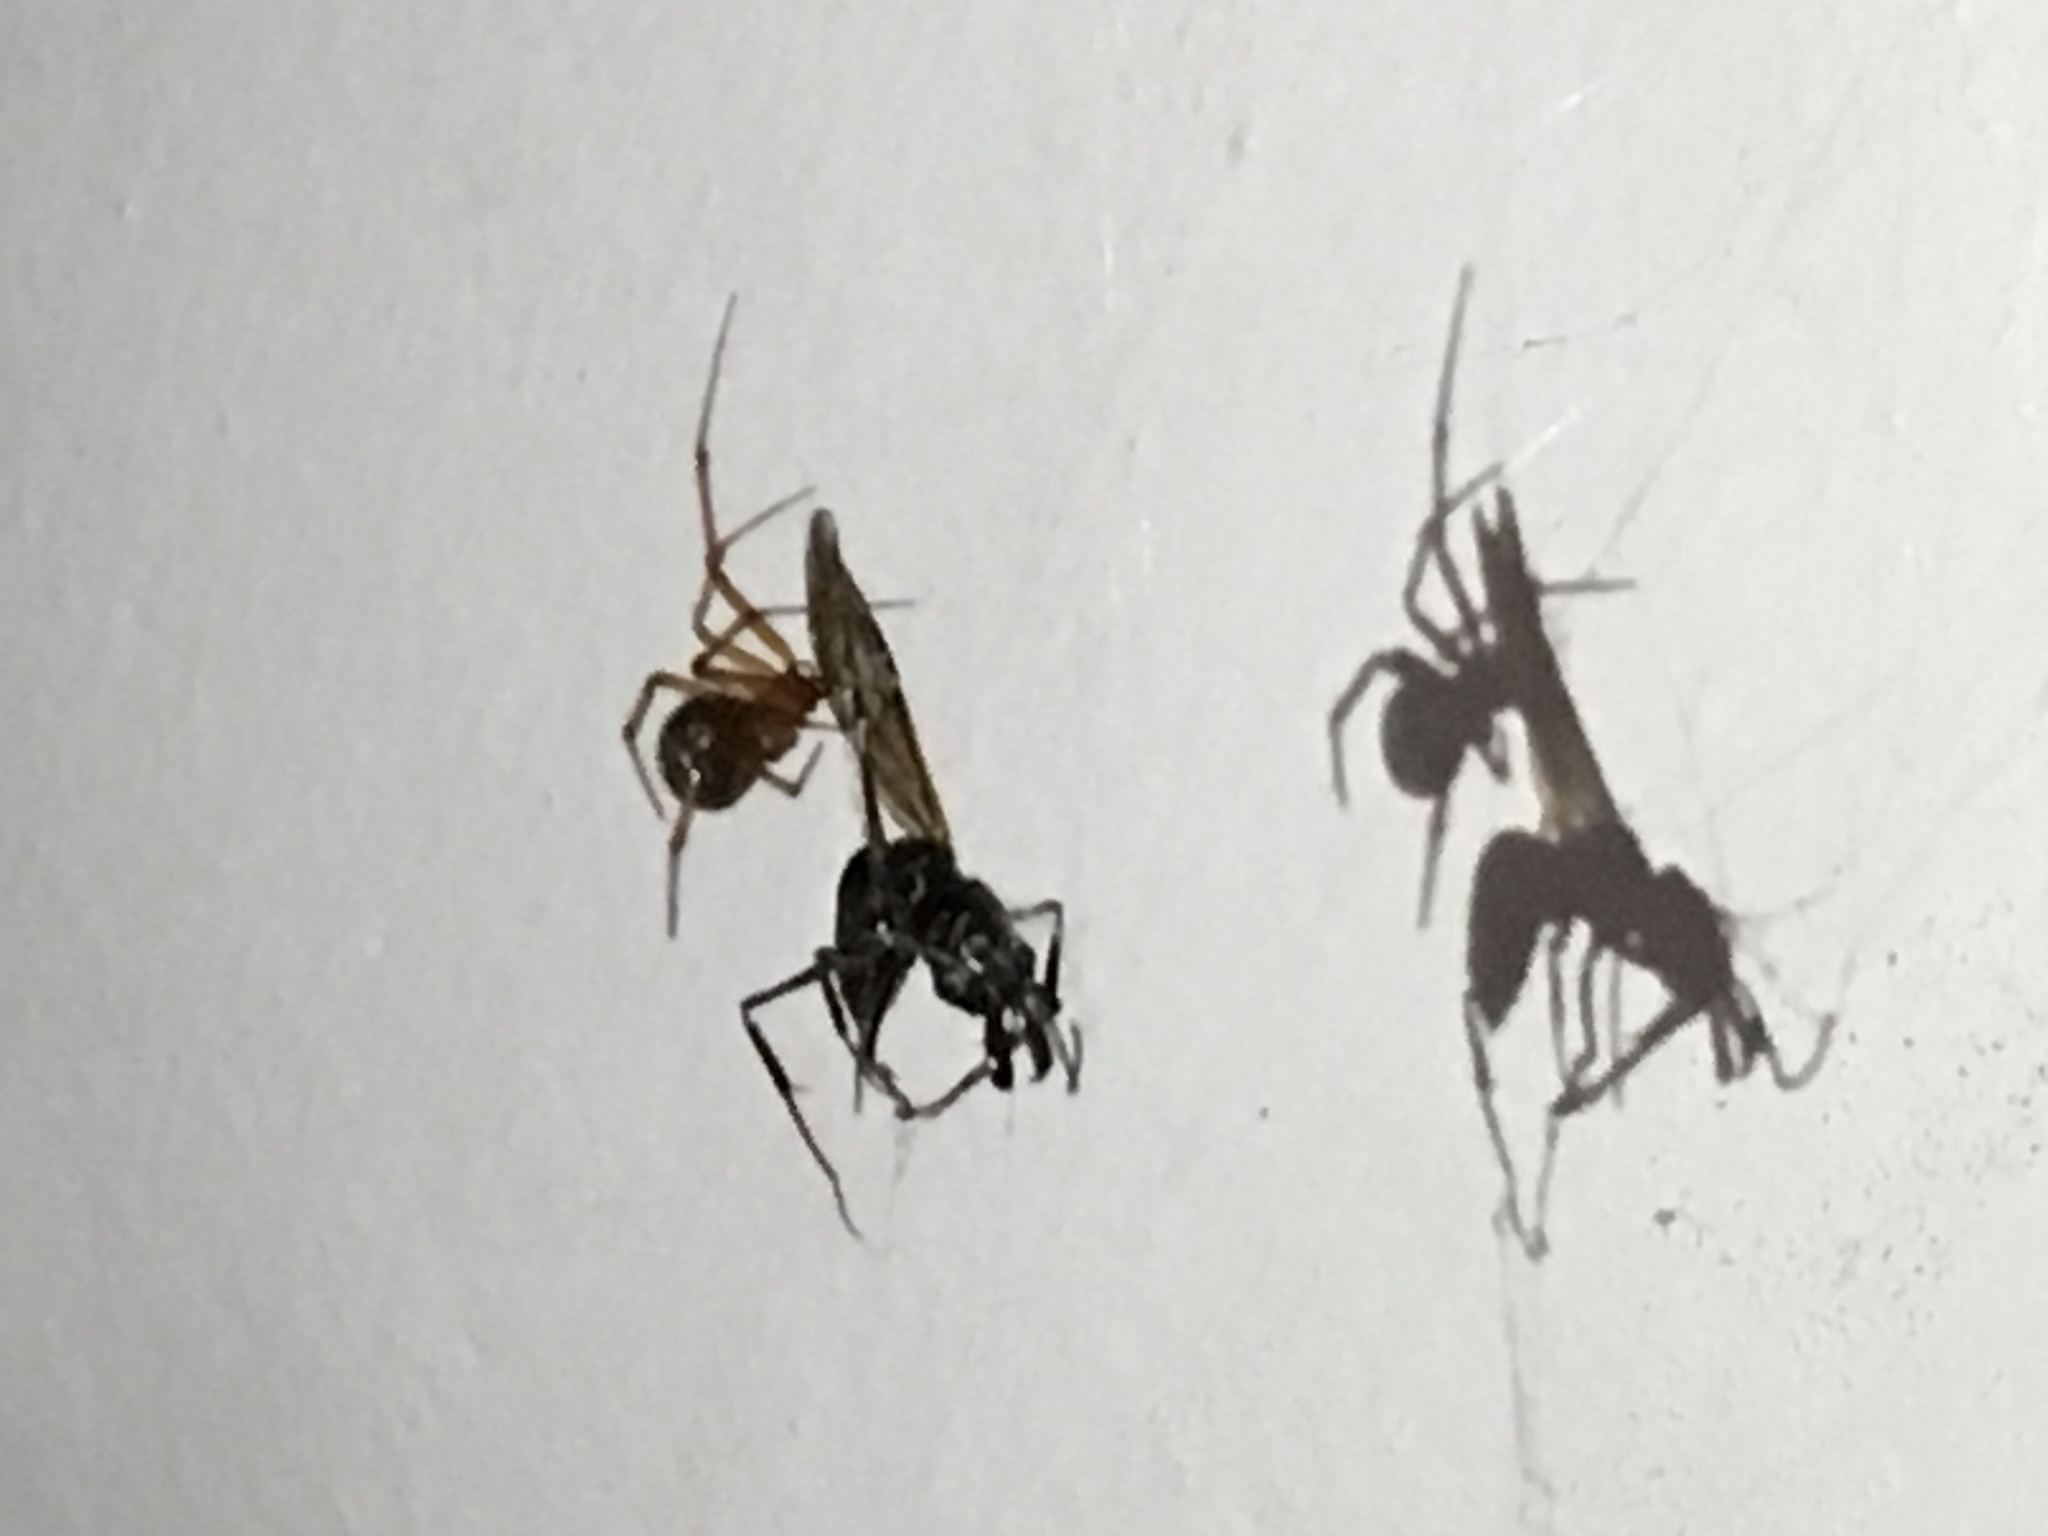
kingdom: Animalia
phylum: Arthropoda
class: Arachnida
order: Araneae
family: Theridiidae
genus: Nesticodes
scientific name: Nesticodes rufipes
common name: Cobweb spiders
